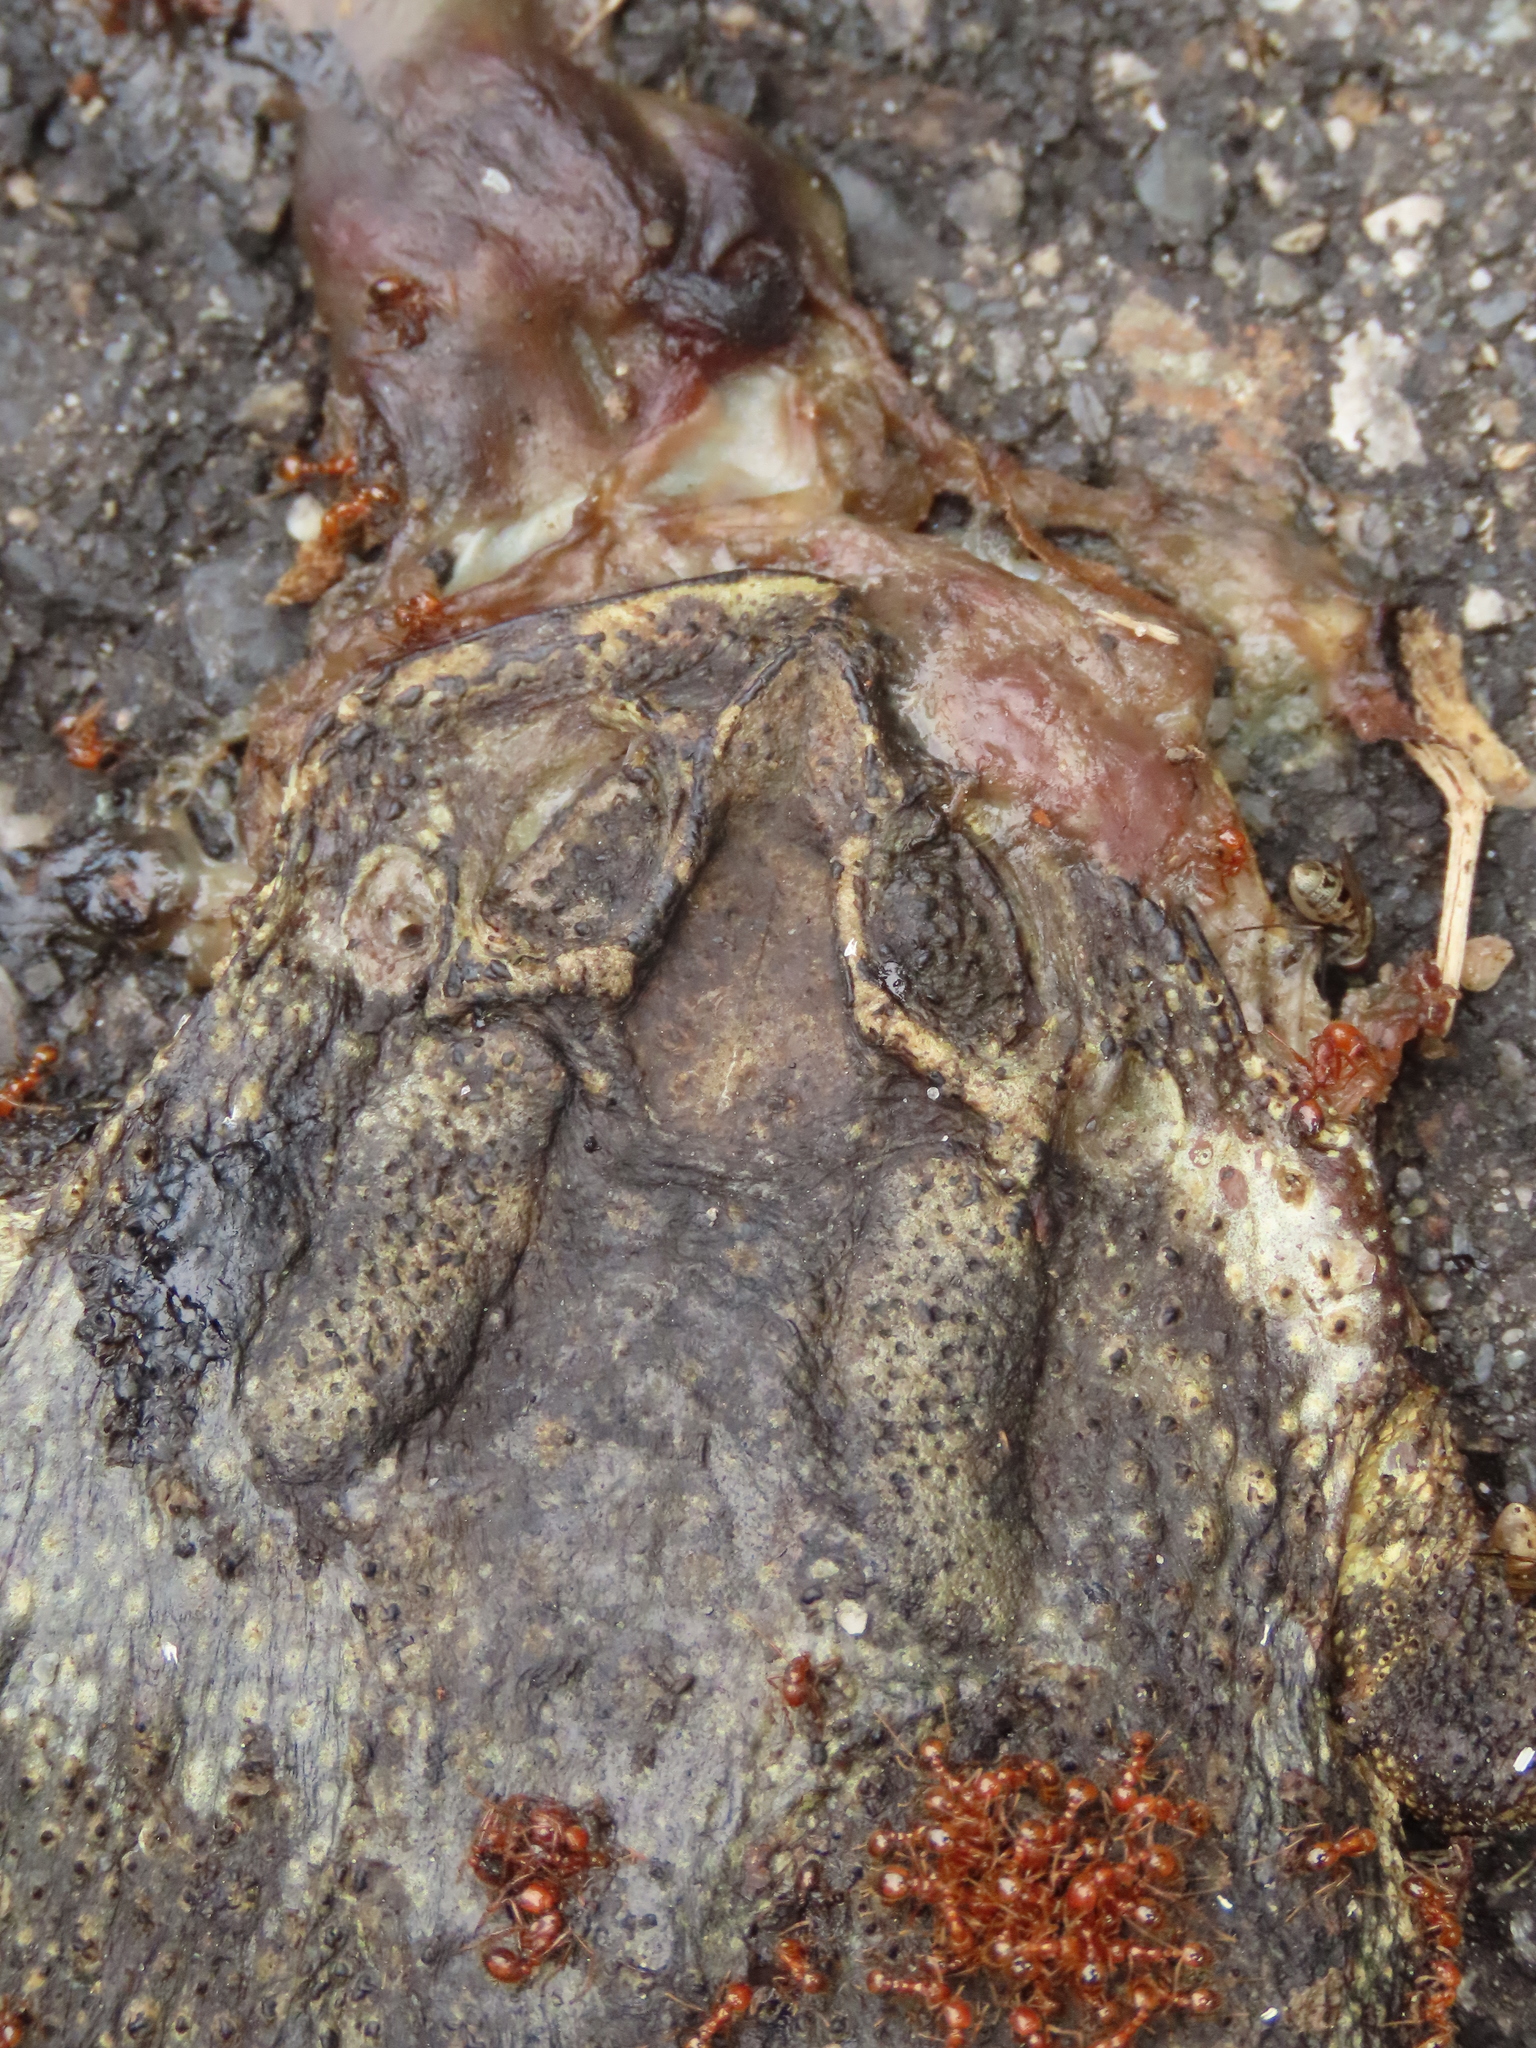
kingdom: Animalia
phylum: Chordata
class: Amphibia
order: Anura
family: Bufonidae
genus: Duttaphrynus
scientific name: Duttaphrynus melanostictus
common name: Common sunda toad
